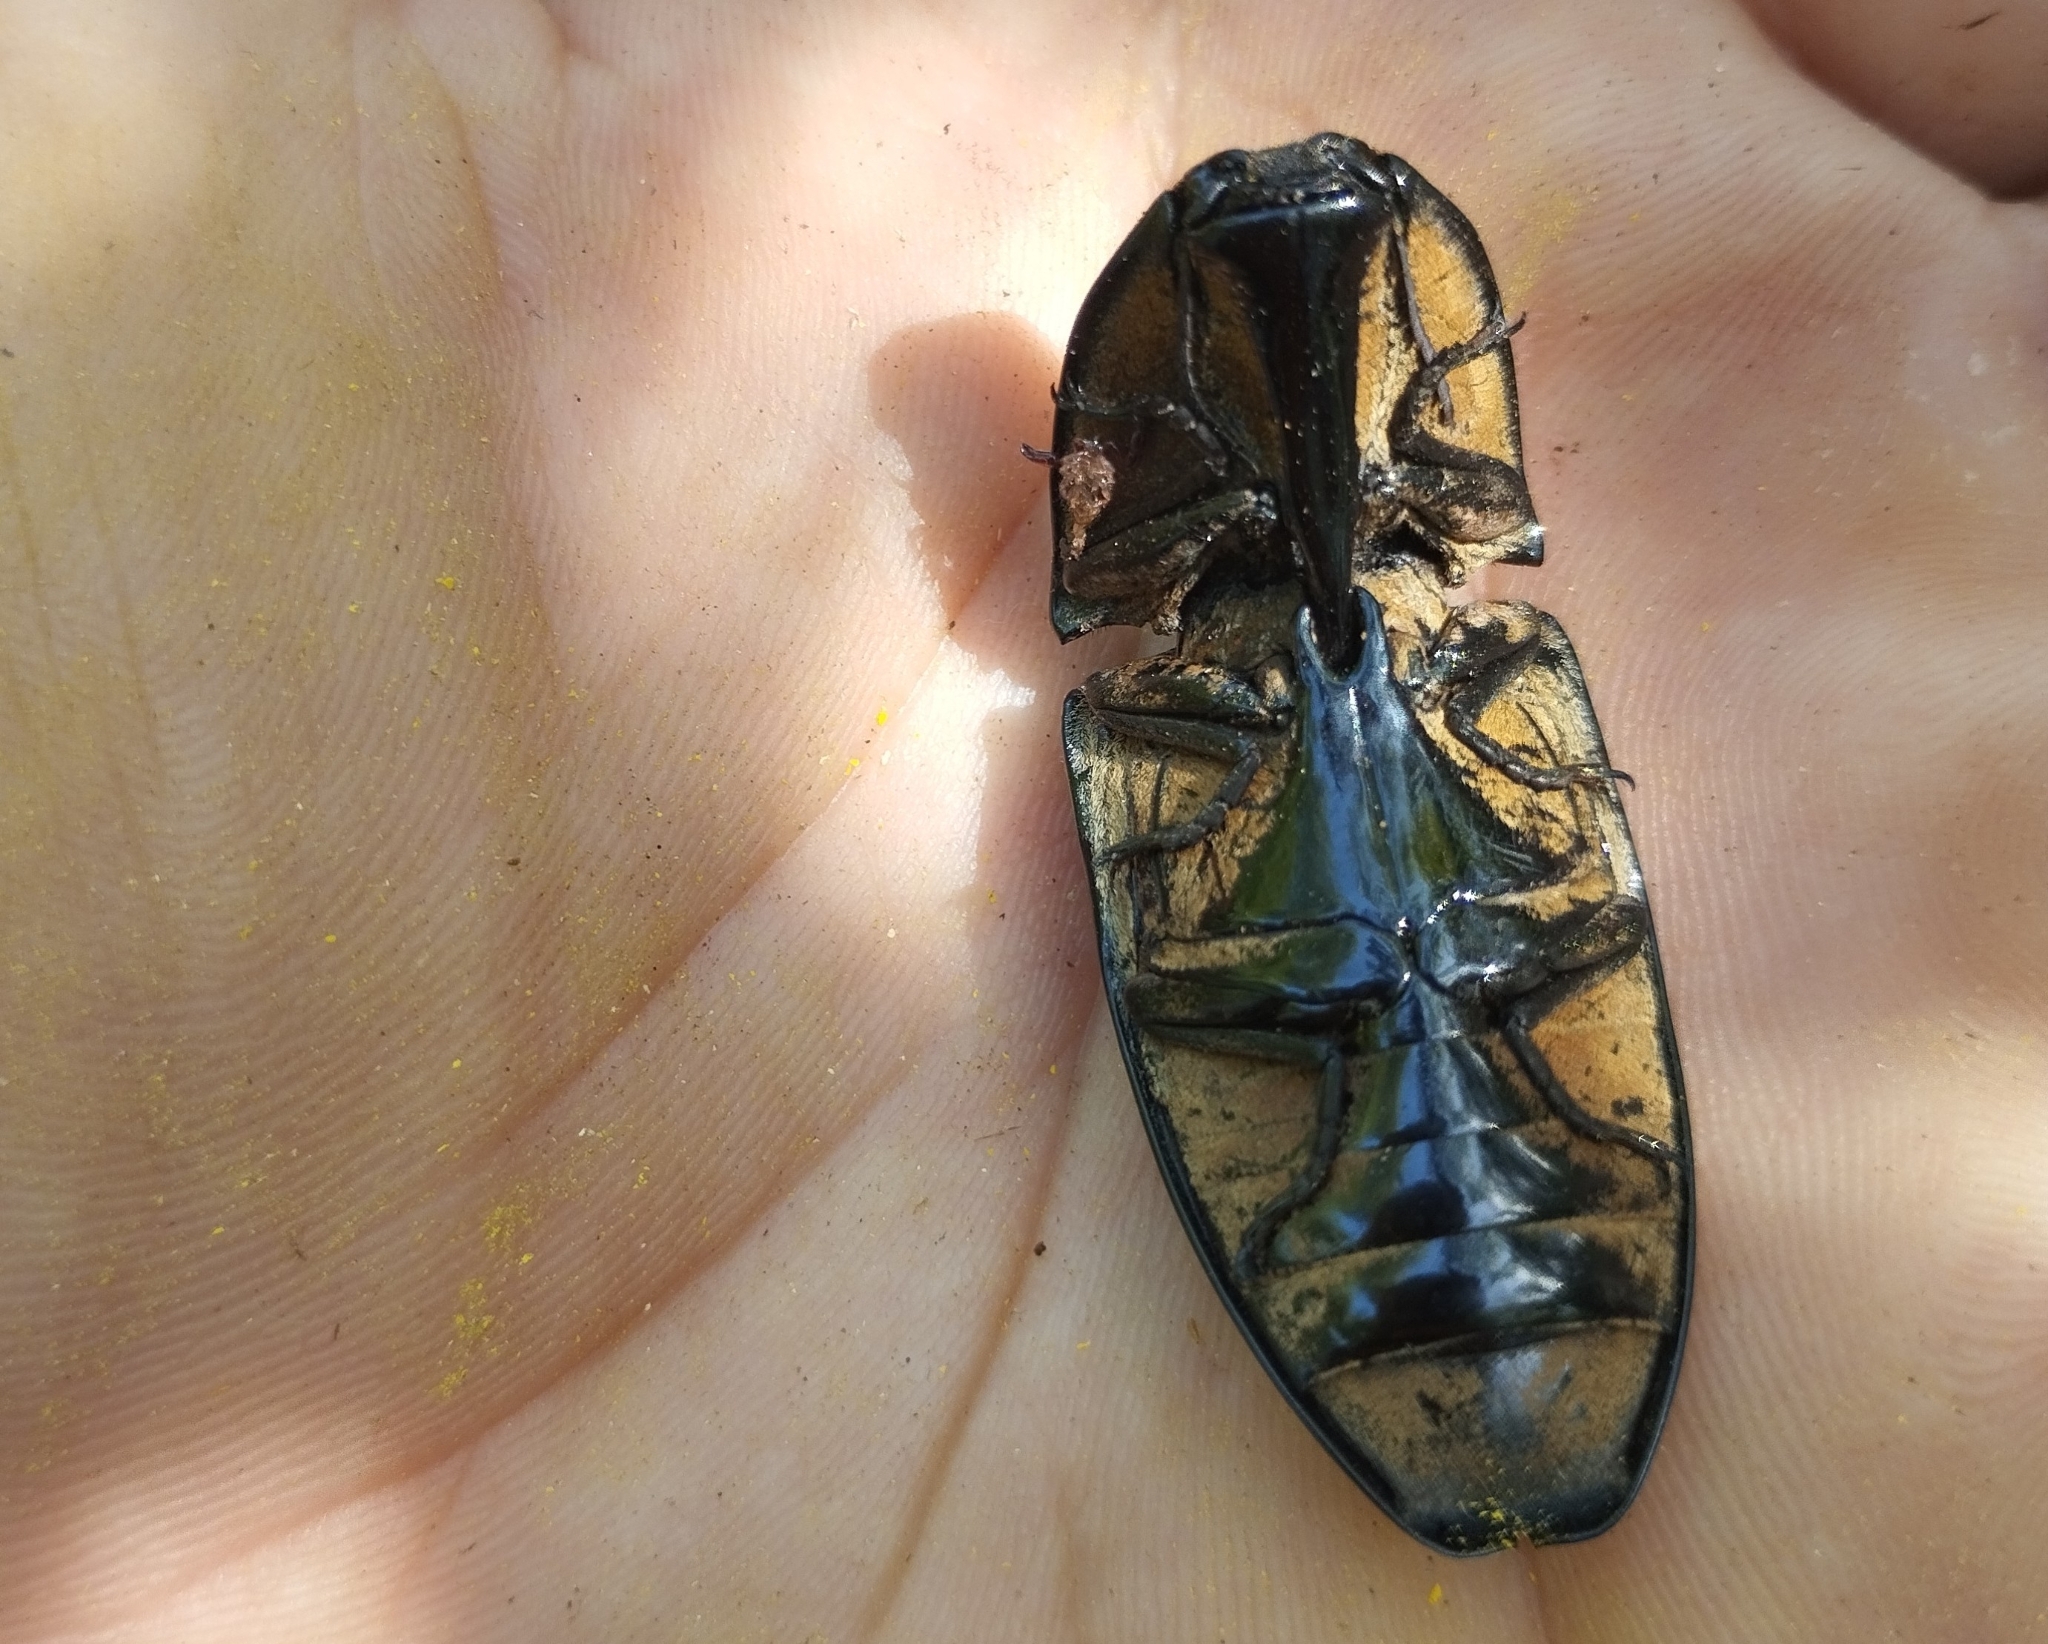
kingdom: Animalia
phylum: Arthropoda
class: Insecta
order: Coleoptera
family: Elateridae
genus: Chalcolepidius
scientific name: Chalcolepidius
